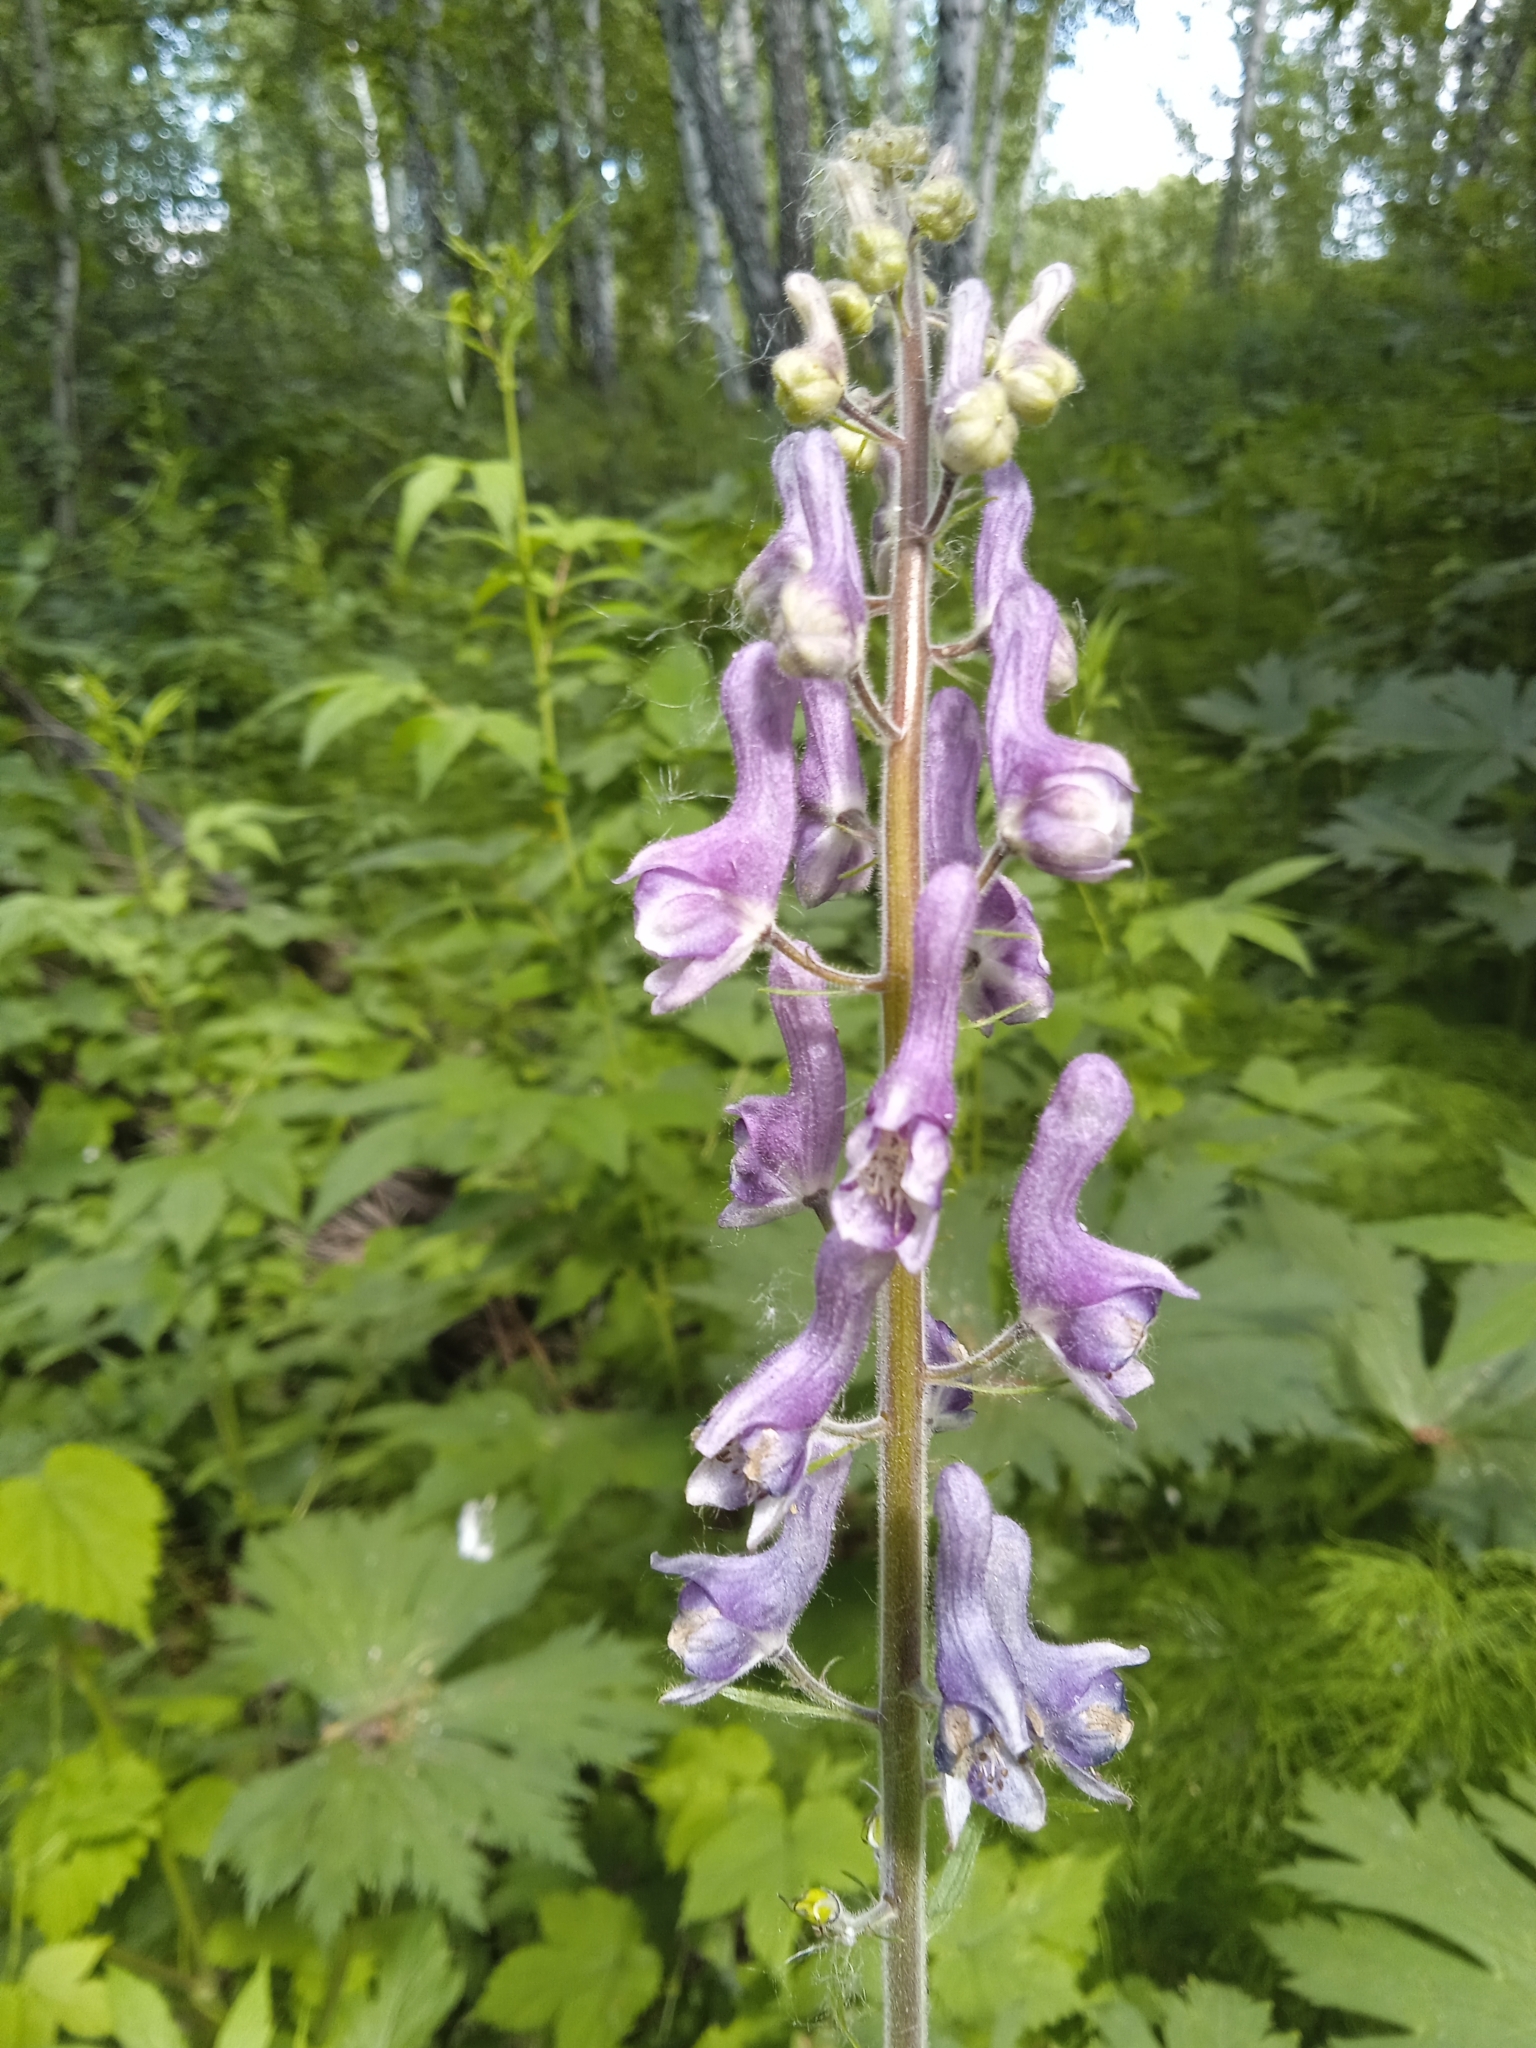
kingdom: Plantae
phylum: Tracheophyta
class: Magnoliopsida
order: Ranunculales
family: Ranunculaceae
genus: Aconitum
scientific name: Aconitum septentrionale
